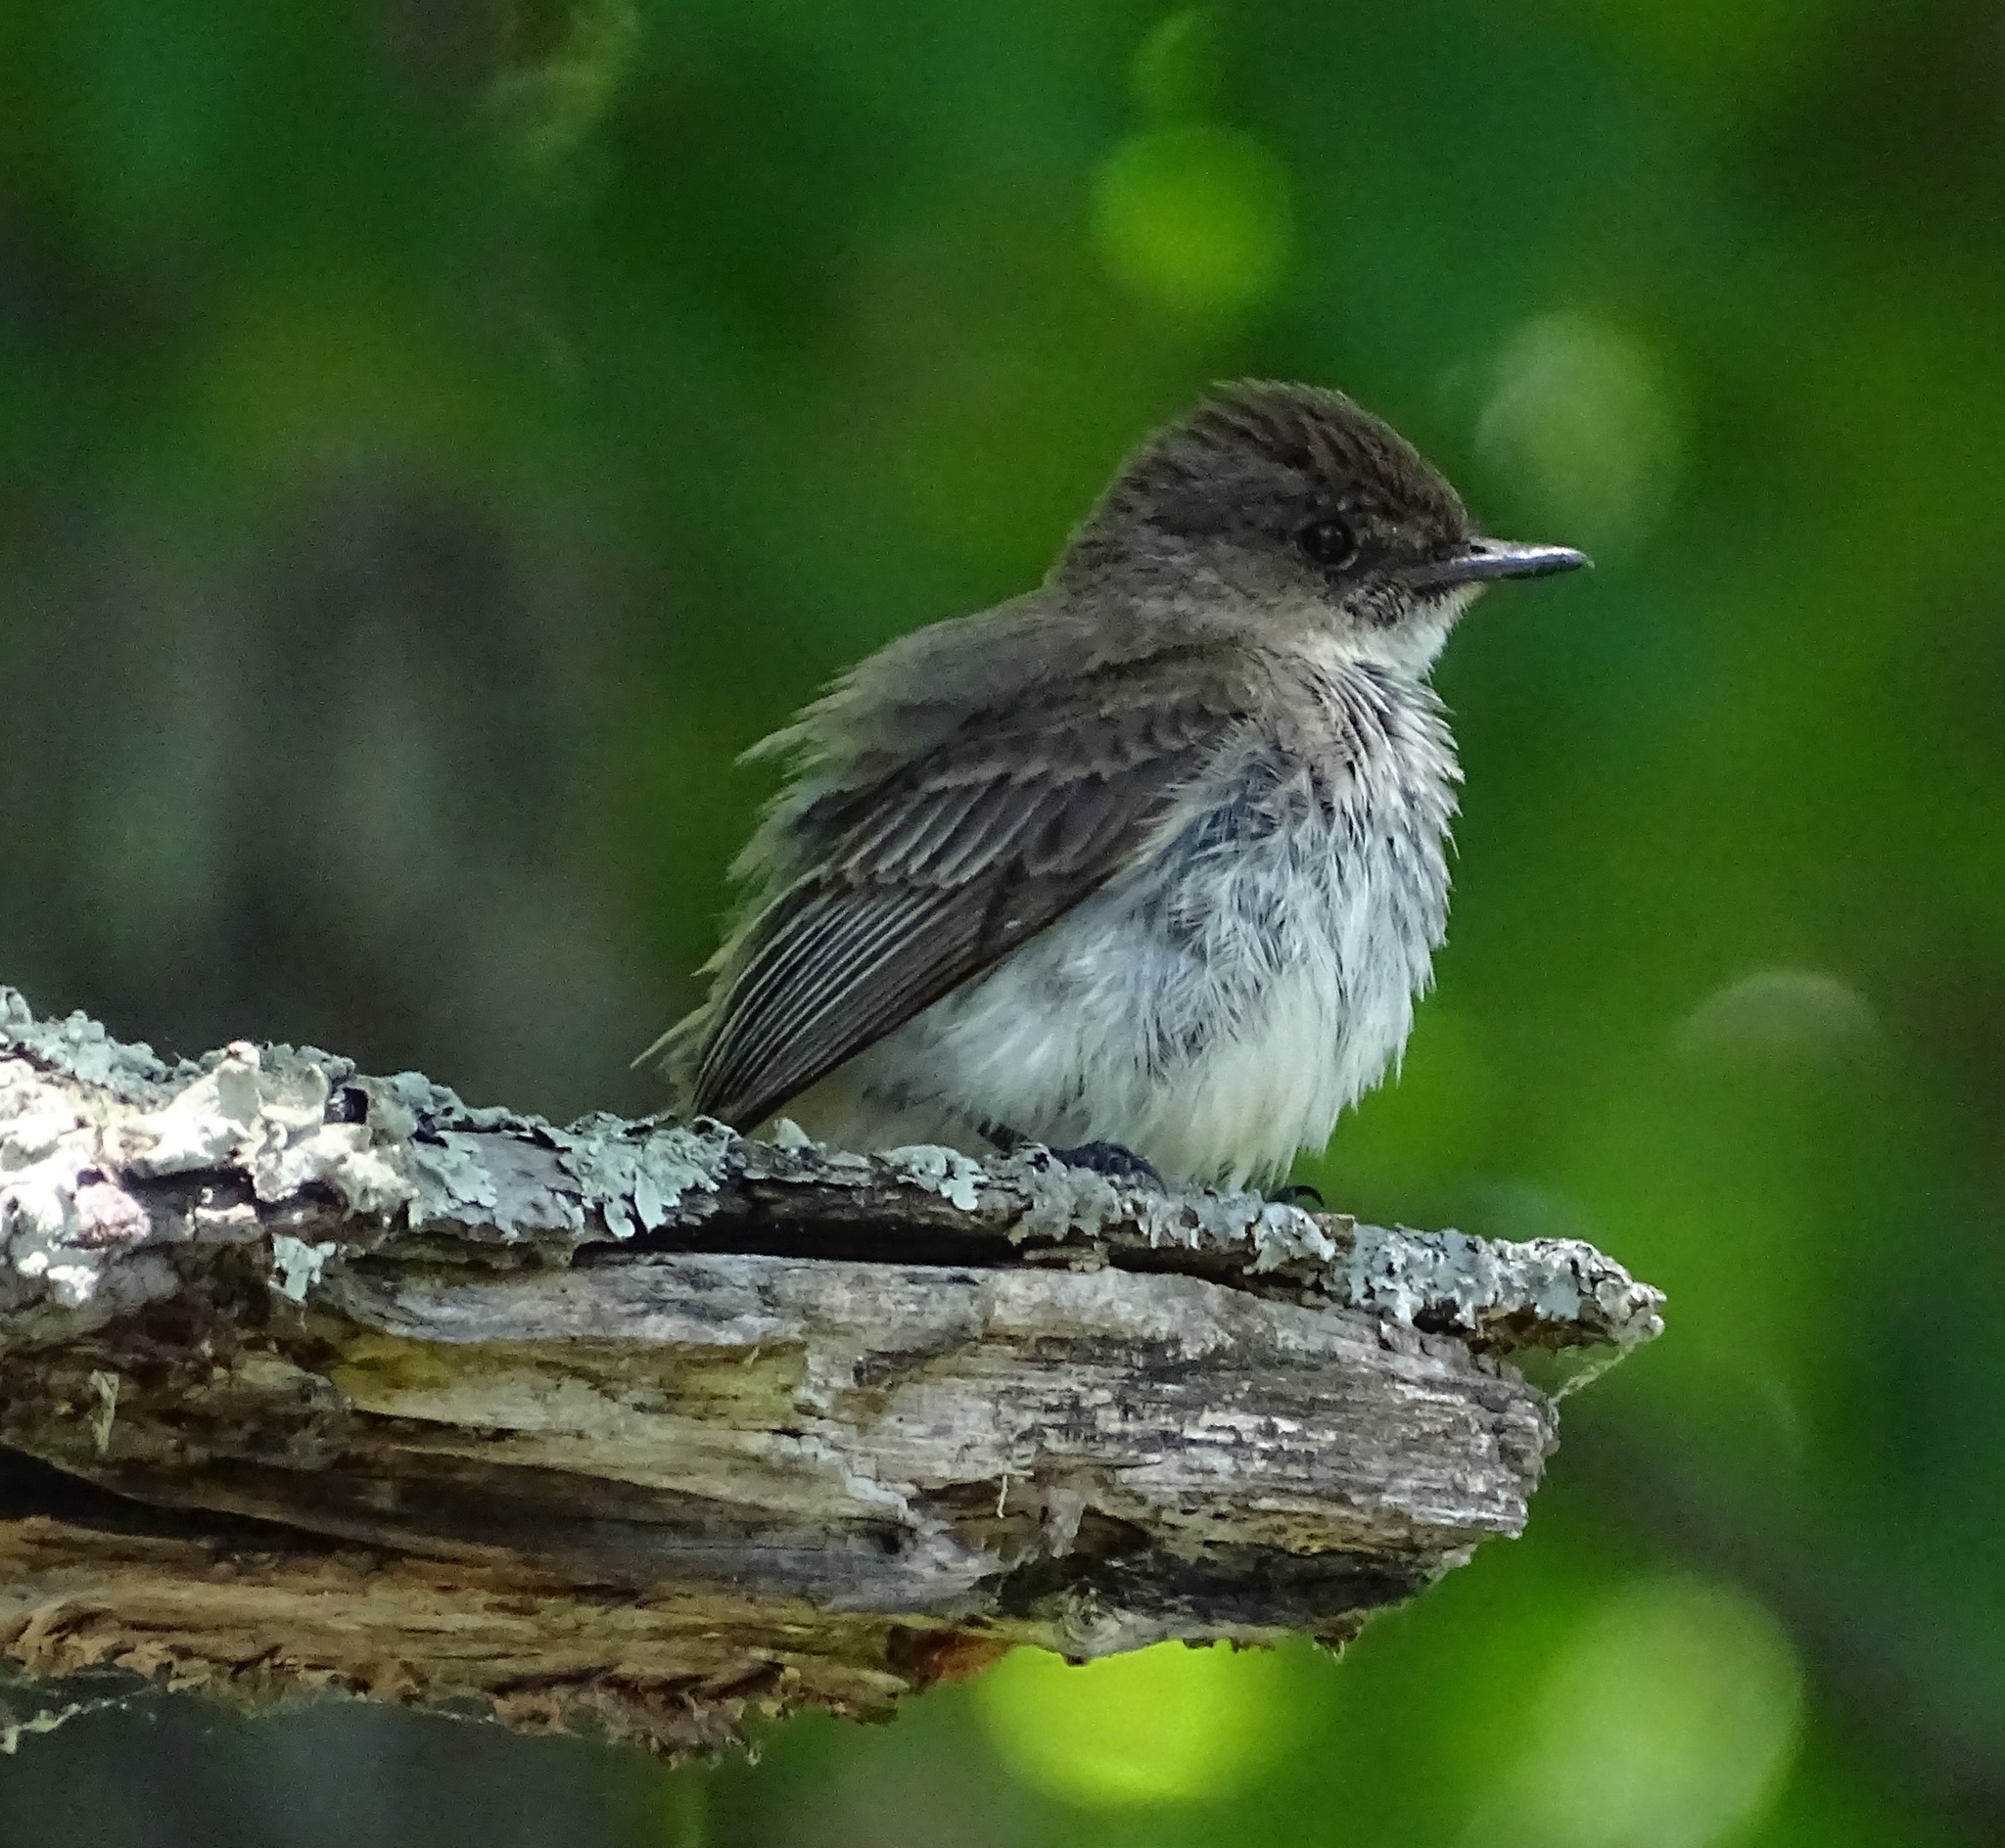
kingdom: Animalia
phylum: Chordata
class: Aves
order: Passeriformes
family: Tyrannidae
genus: Sayornis
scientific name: Sayornis phoebe
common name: Eastern phoebe
